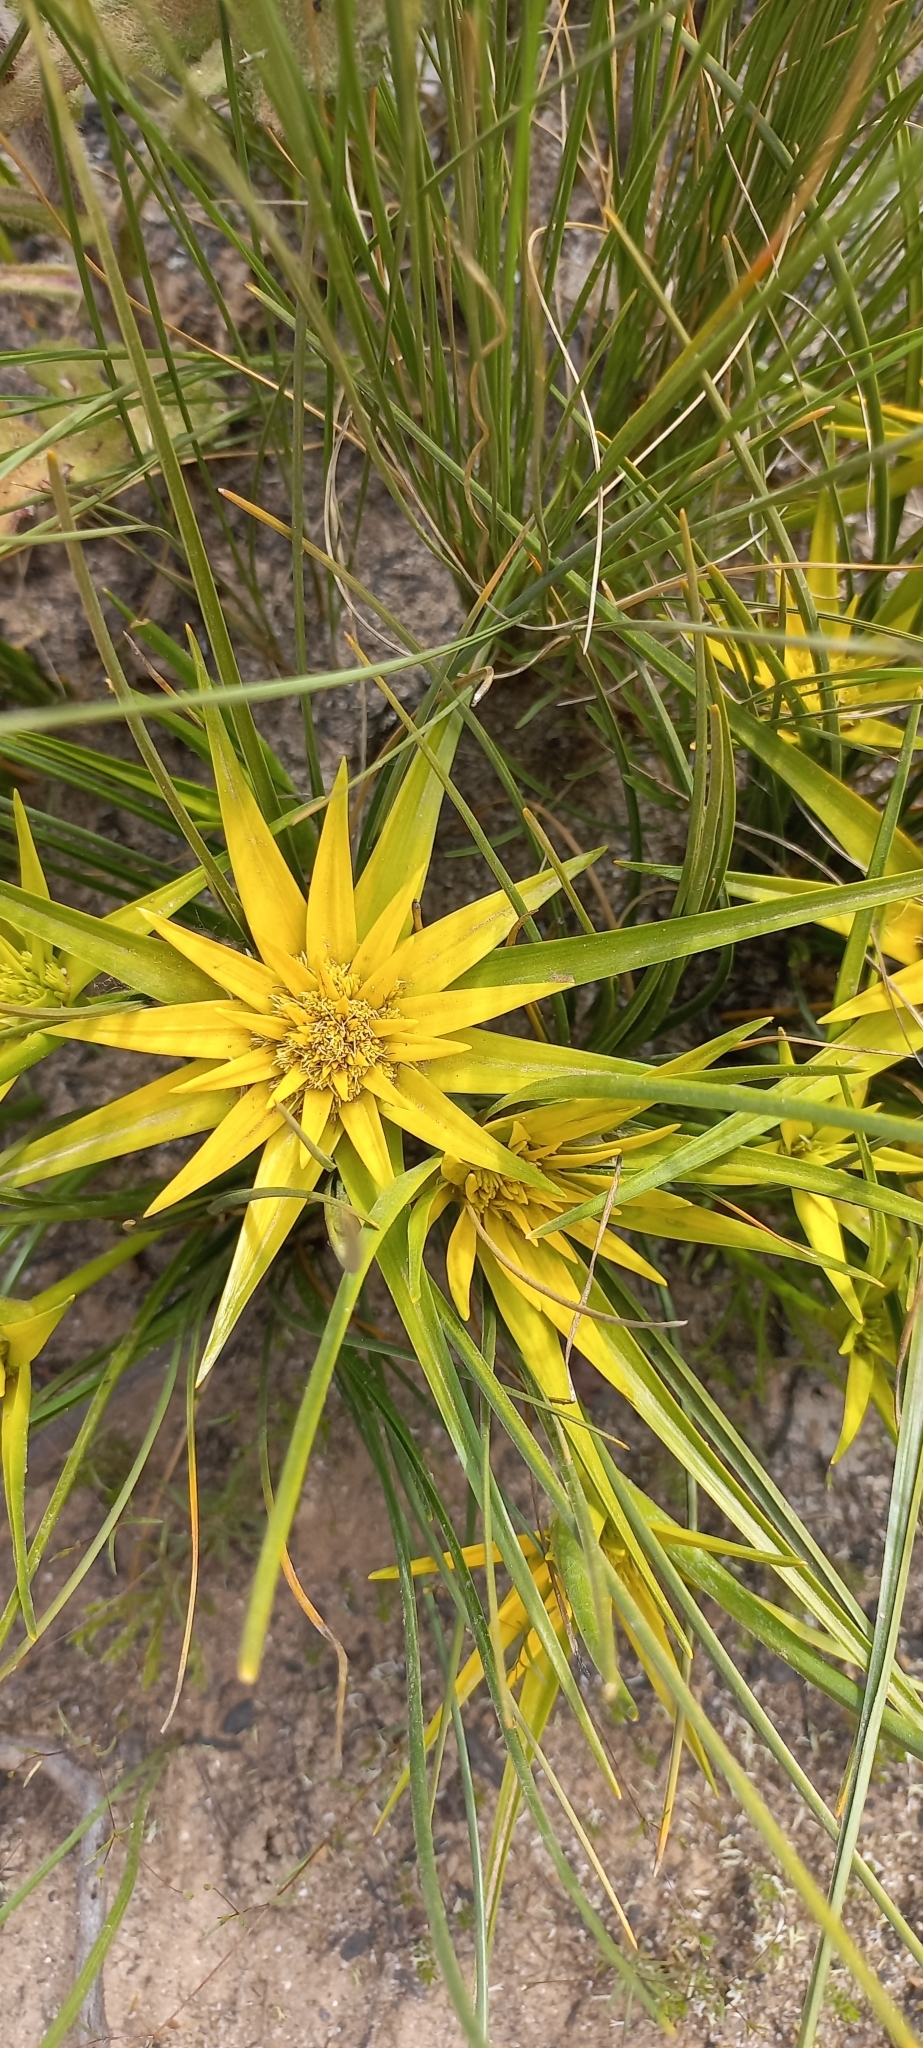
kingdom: Plantae
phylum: Tracheophyta
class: Liliopsida
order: Poales
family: Cyperaceae
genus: Ficinia
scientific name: Ficinia radiata
